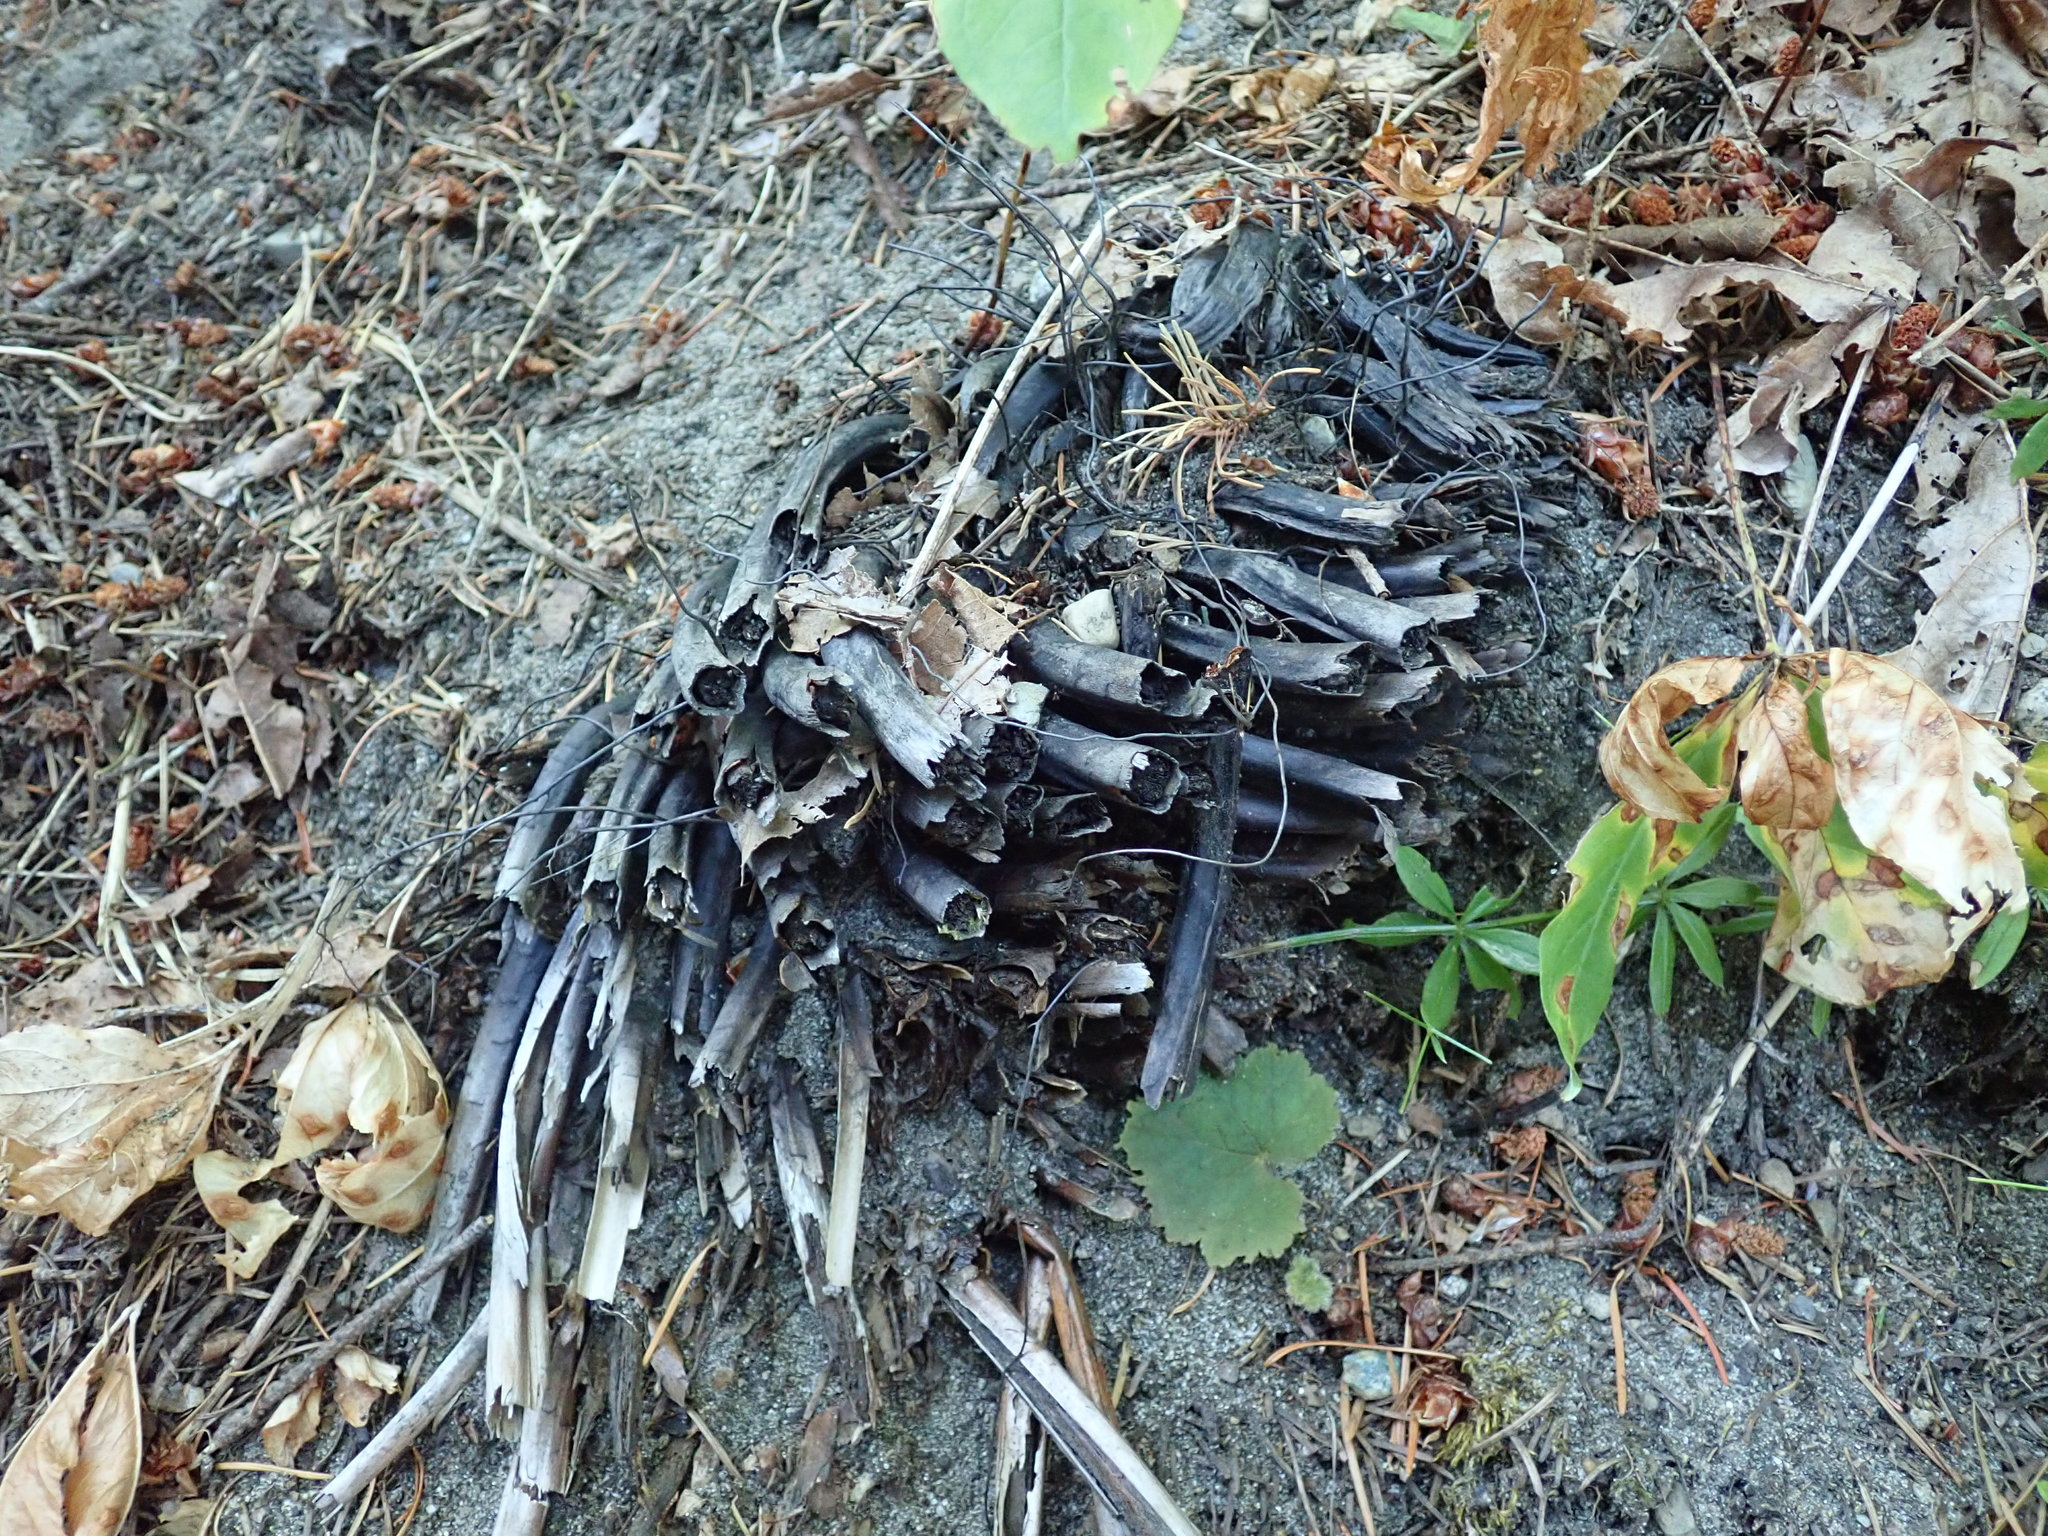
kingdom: Plantae
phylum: Tracheophyta
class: Polypodiopsida
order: Polypodiales
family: Dryopteridaceae
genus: Polystichum
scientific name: Polystichum munitum
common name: Western sword-fern
